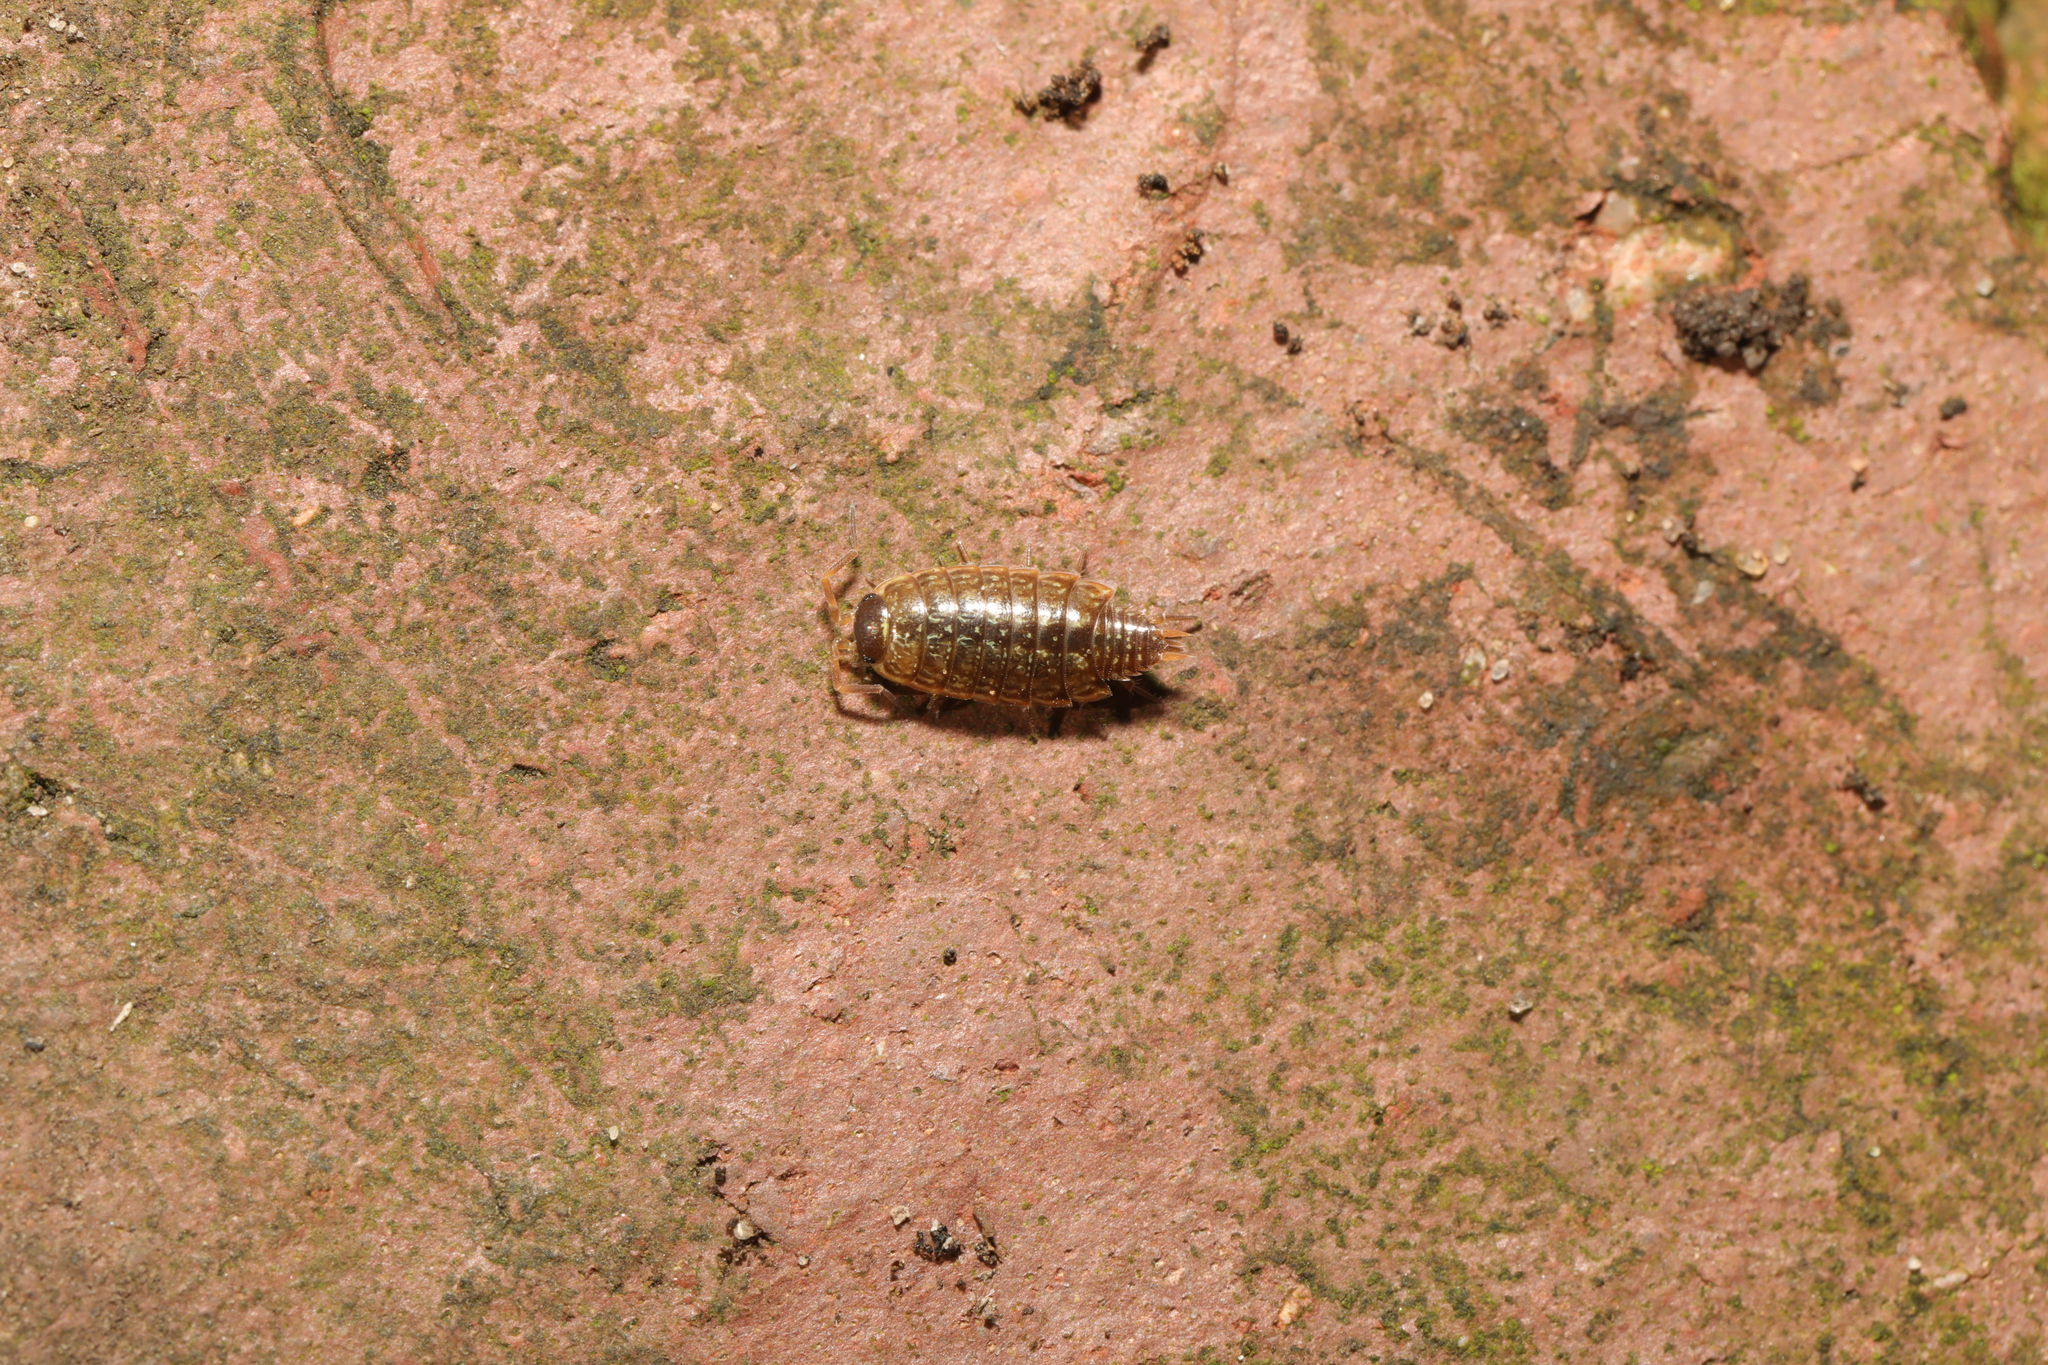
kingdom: Animalia
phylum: Arthropoda
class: Malacostraca
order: Isopoda
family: Philosciidae
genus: Philoscia
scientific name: Philoscia muscorum
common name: Common striped woodlouse
